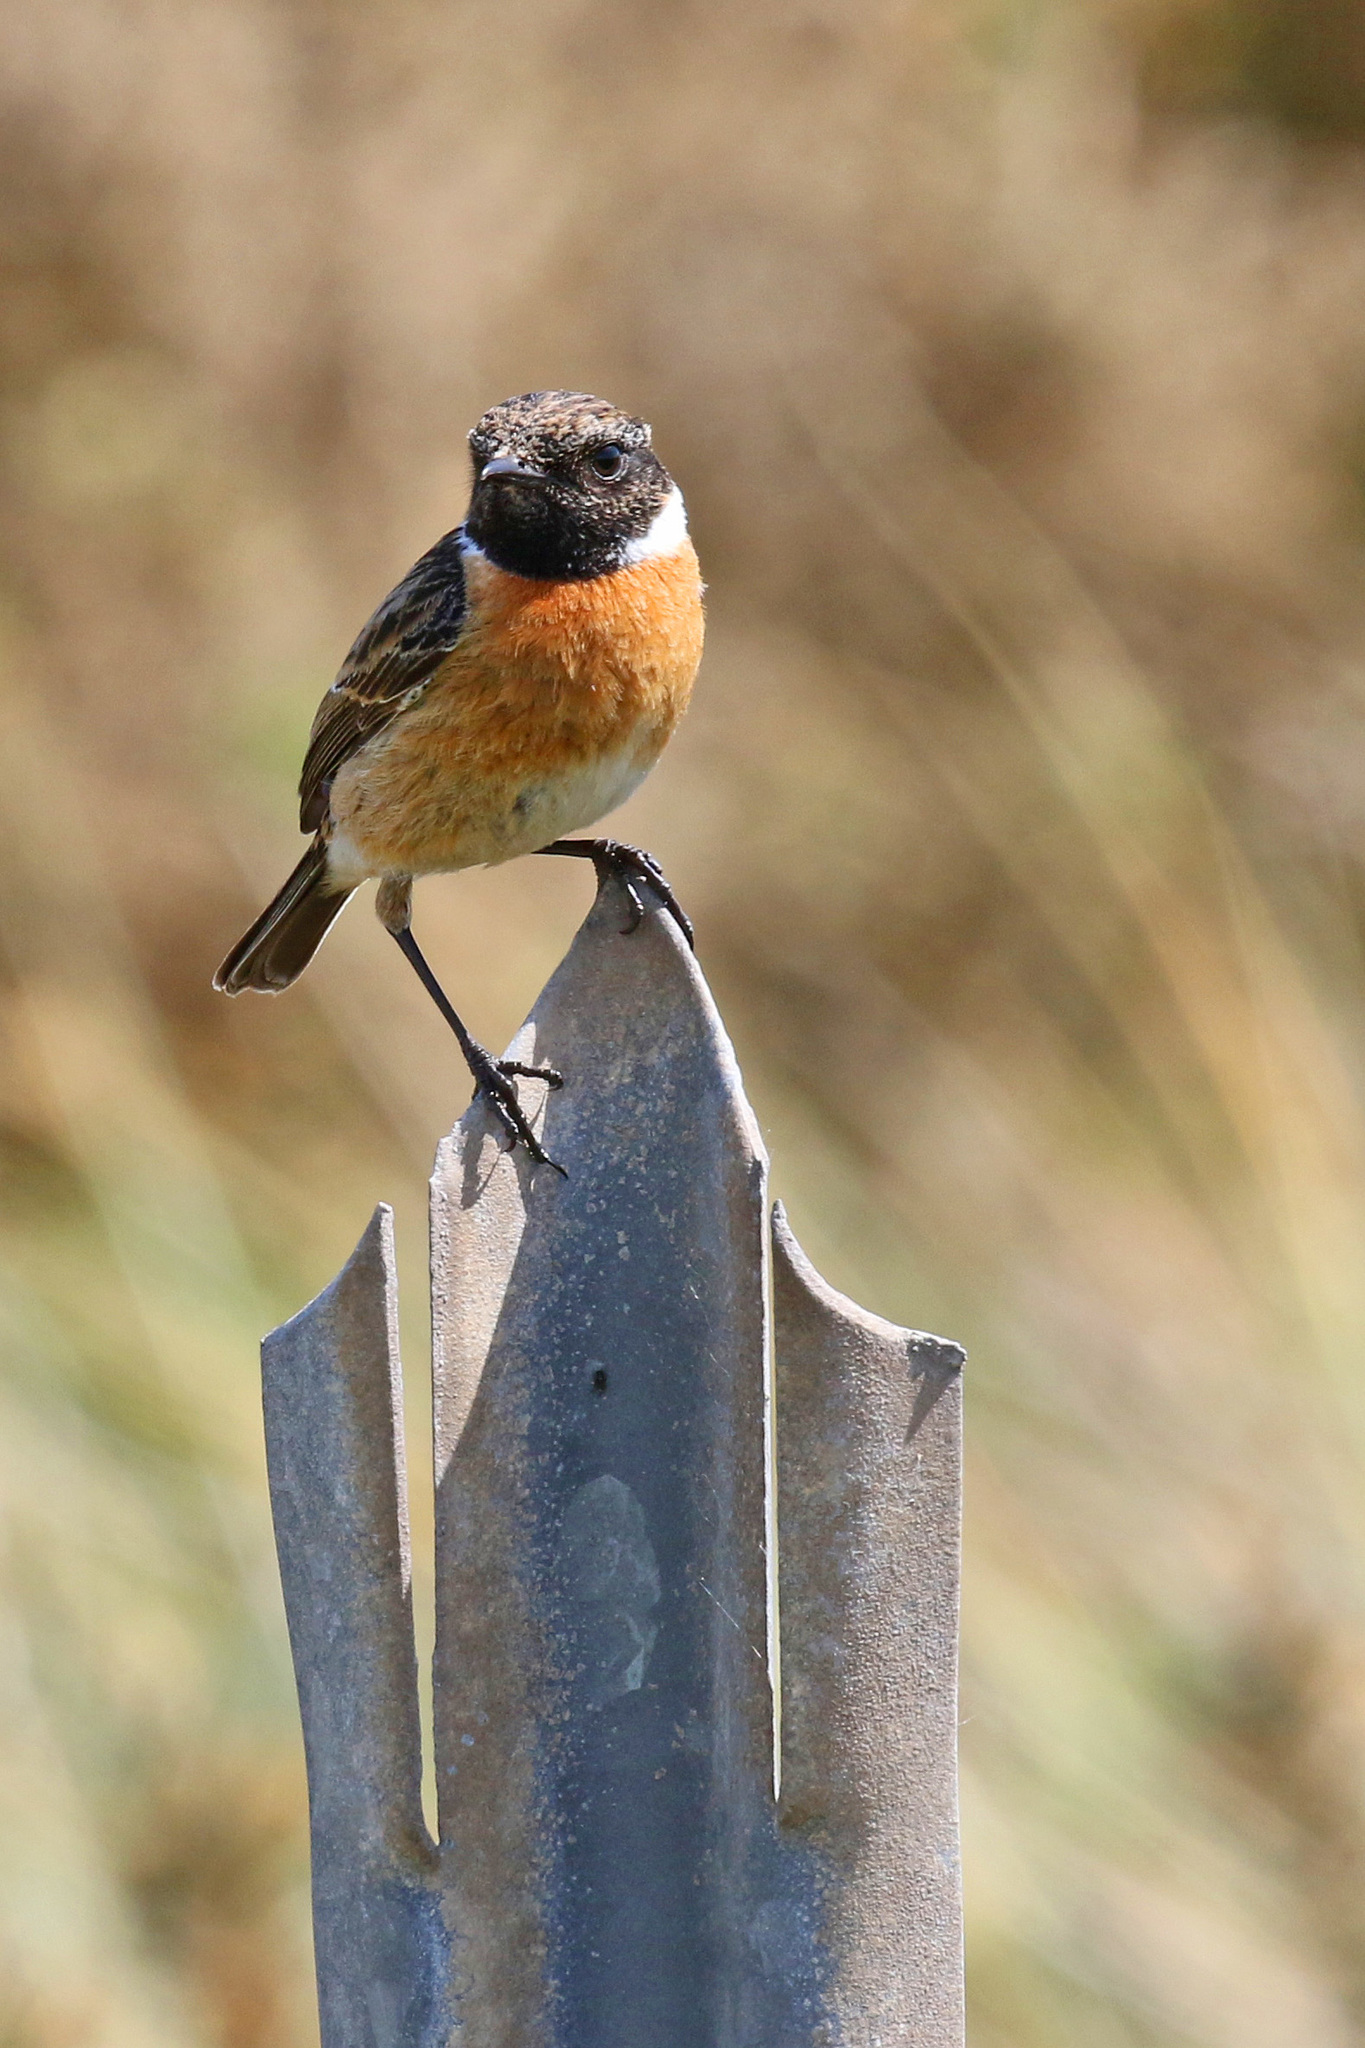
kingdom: Animalia
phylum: Chordata
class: Aves
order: Passeriformes
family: Muscicapidae
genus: Saxicola
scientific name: Saxicola rubicola
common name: European stonechat
